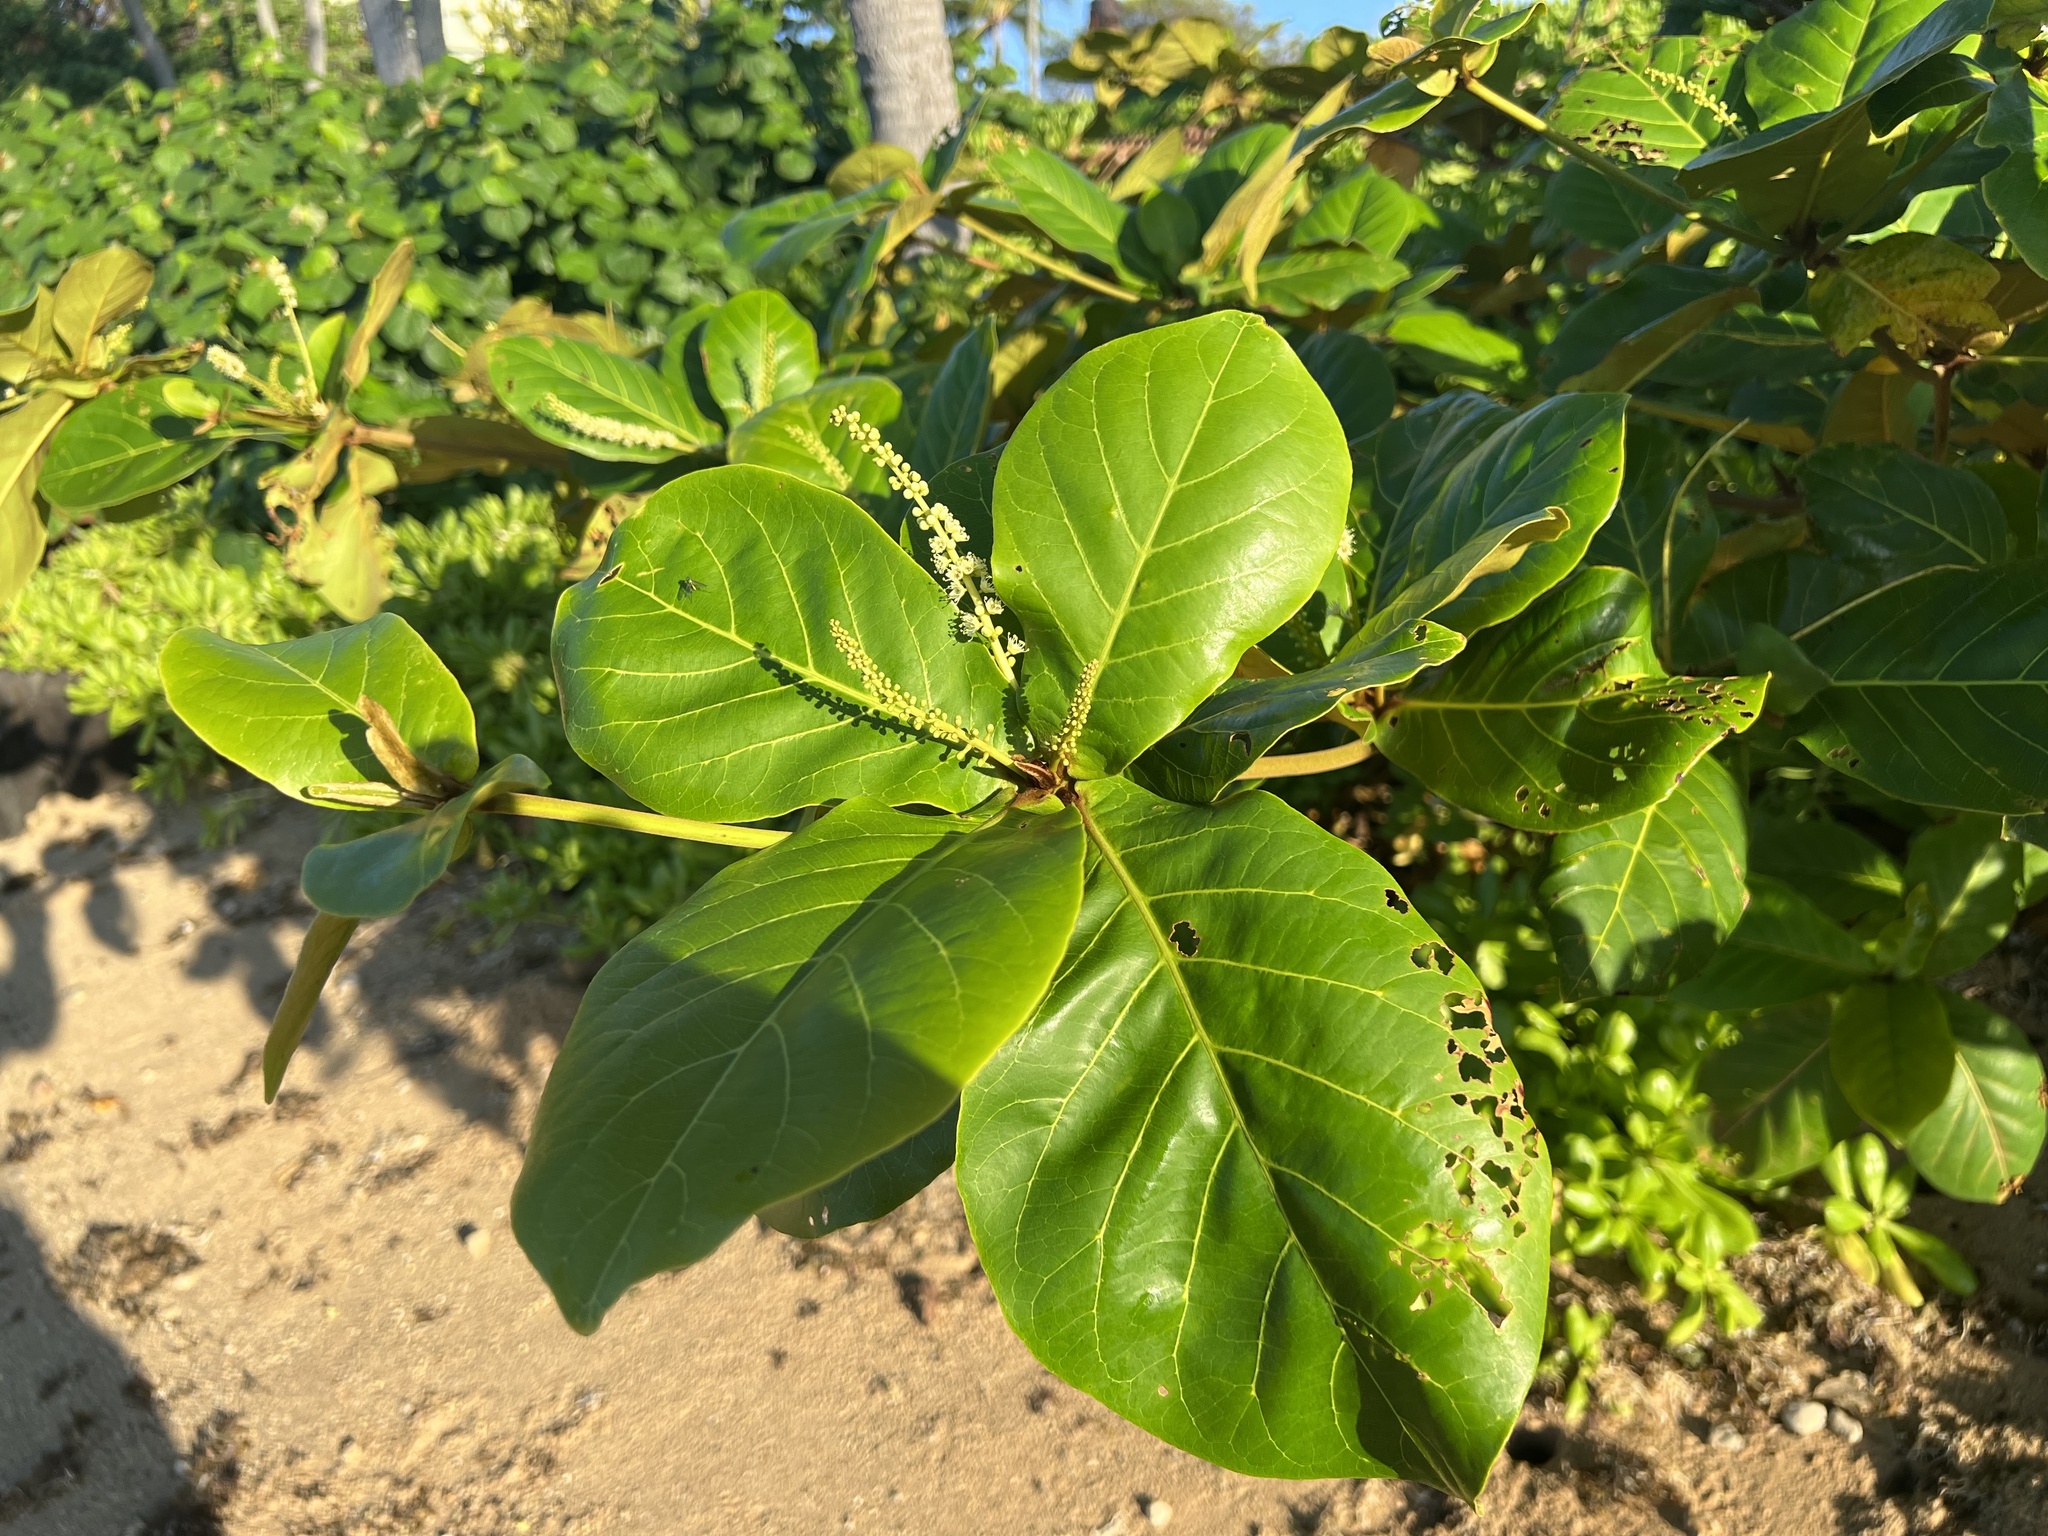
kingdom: Plantae
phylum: Tracheophyta
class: Magnoliopsida
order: Myrtales
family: Combretaceae
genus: Terminalia
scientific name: Terminalia catappa
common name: Tropical almond
